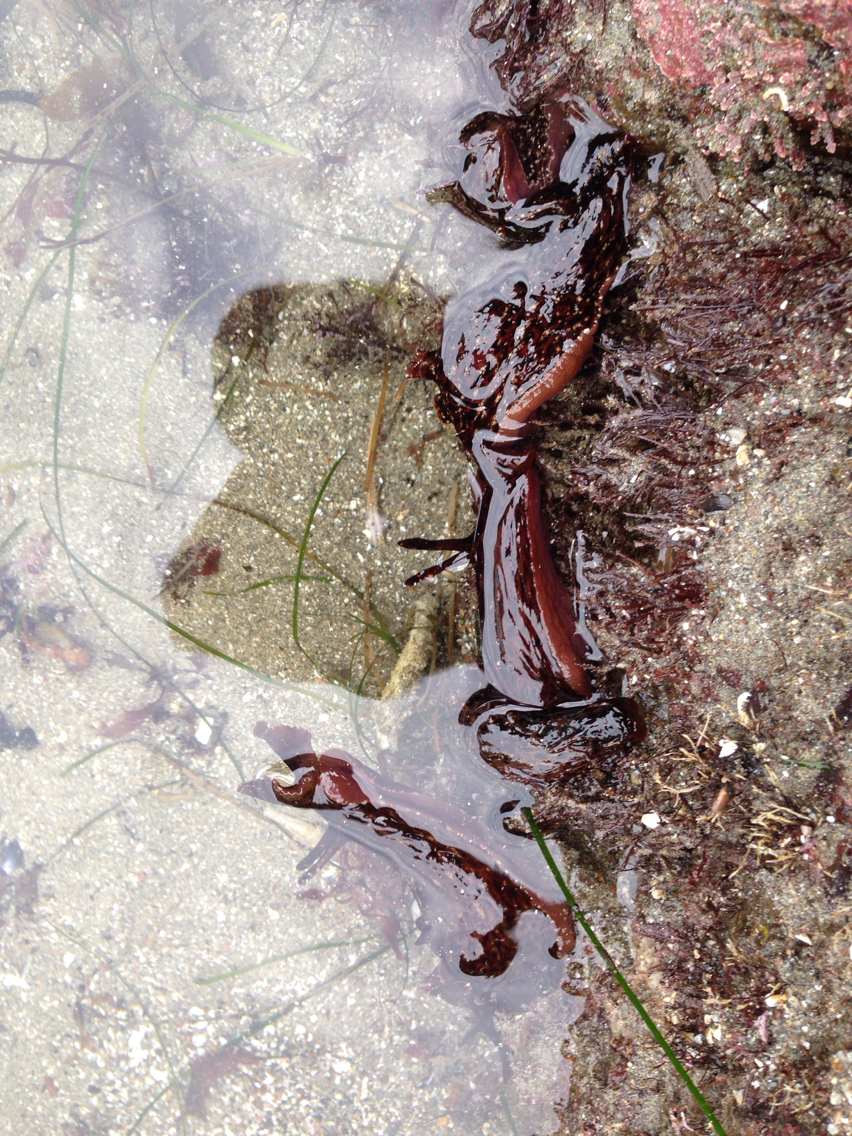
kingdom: Animalia
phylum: Mollusca
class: Gastropoda
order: Aplysiida
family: Aplysiidae
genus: Aplysia
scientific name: Aplysia californica
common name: California seahare
